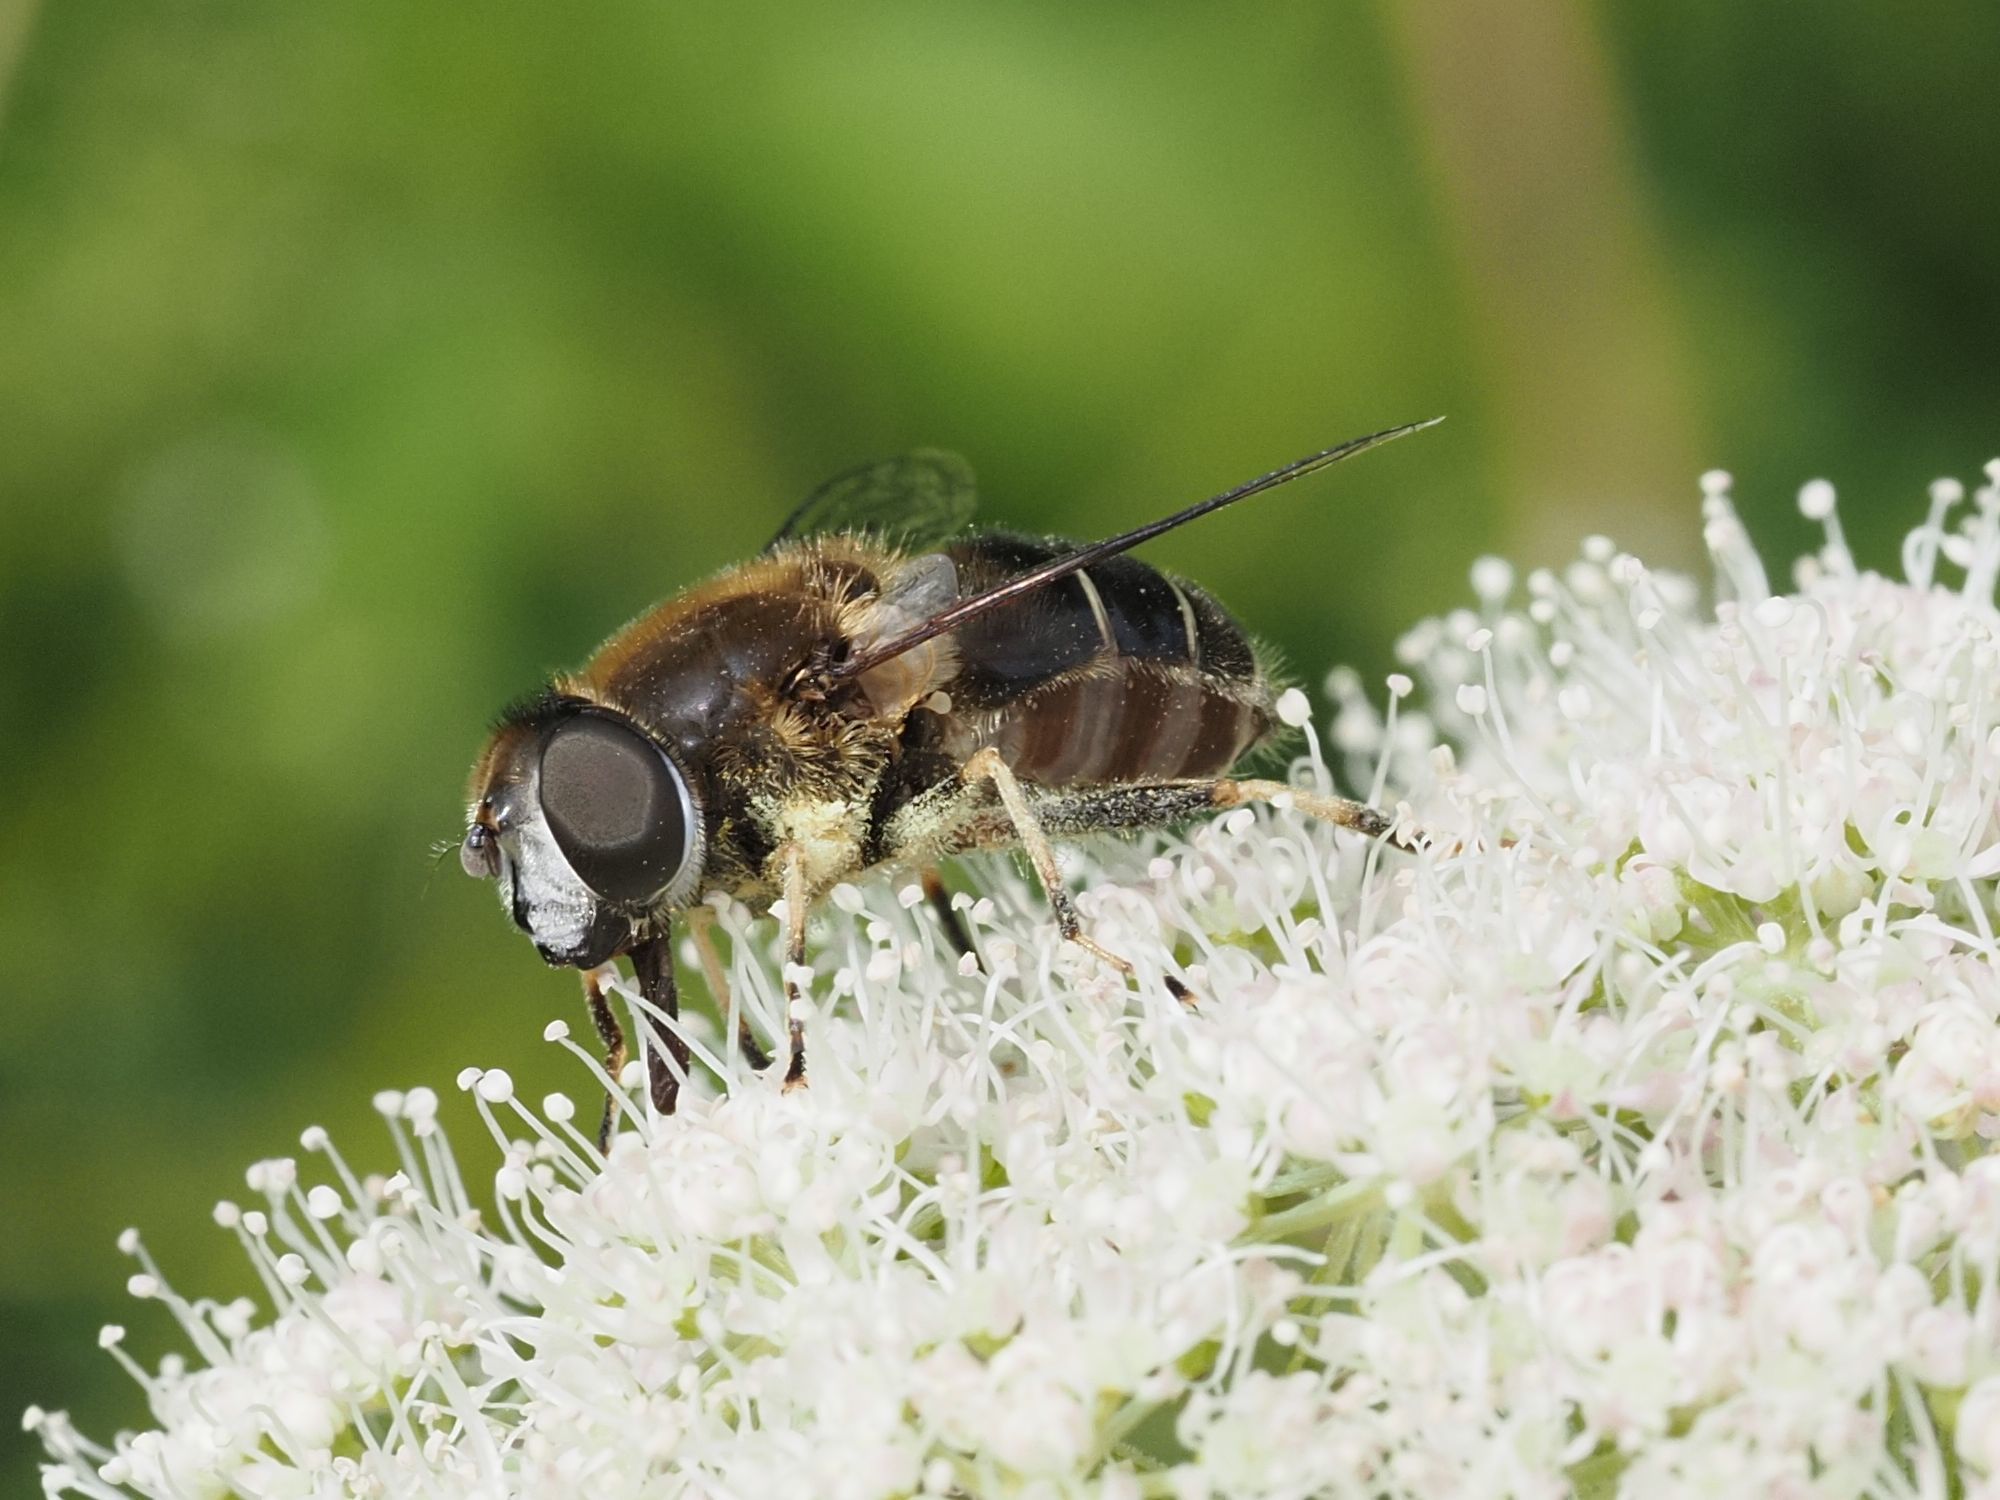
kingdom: Animalia
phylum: Arthropoda
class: Insecta
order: Diptera
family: Syrphidae
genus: Eristalis
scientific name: Eristalis rupium
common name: Hover fly
